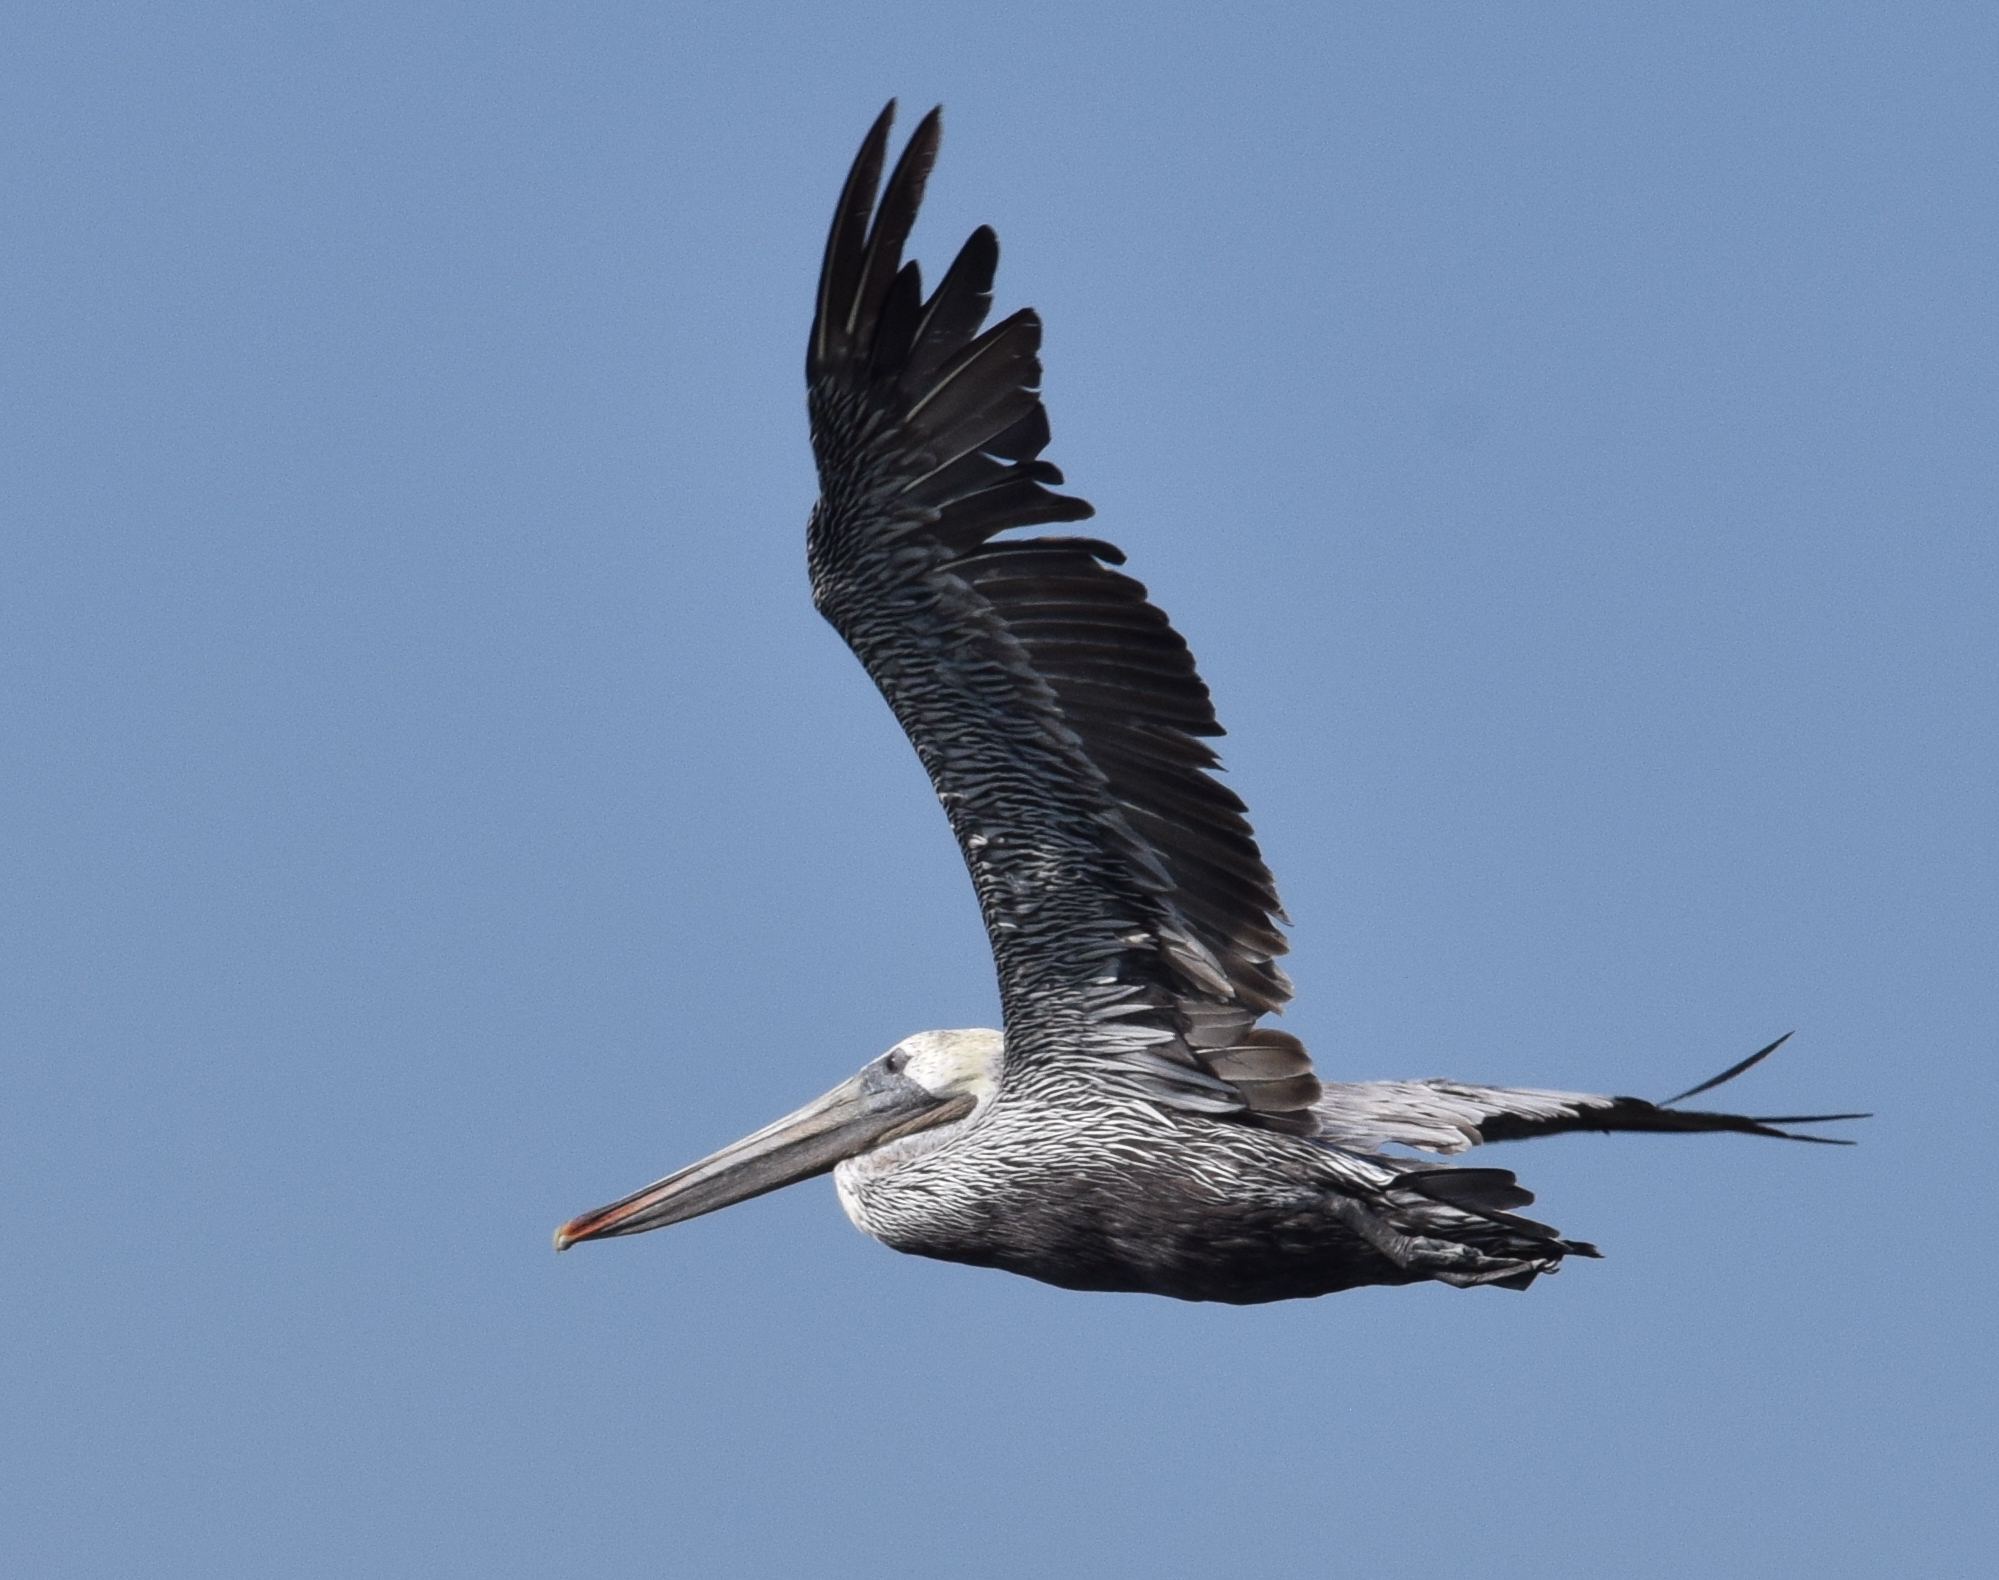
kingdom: Animalia
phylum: Chordata
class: Aves
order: Pelecaniformes
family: Pelecanidae
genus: Pelecanus
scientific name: Pelecanus occidentalis
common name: Brown pelican
